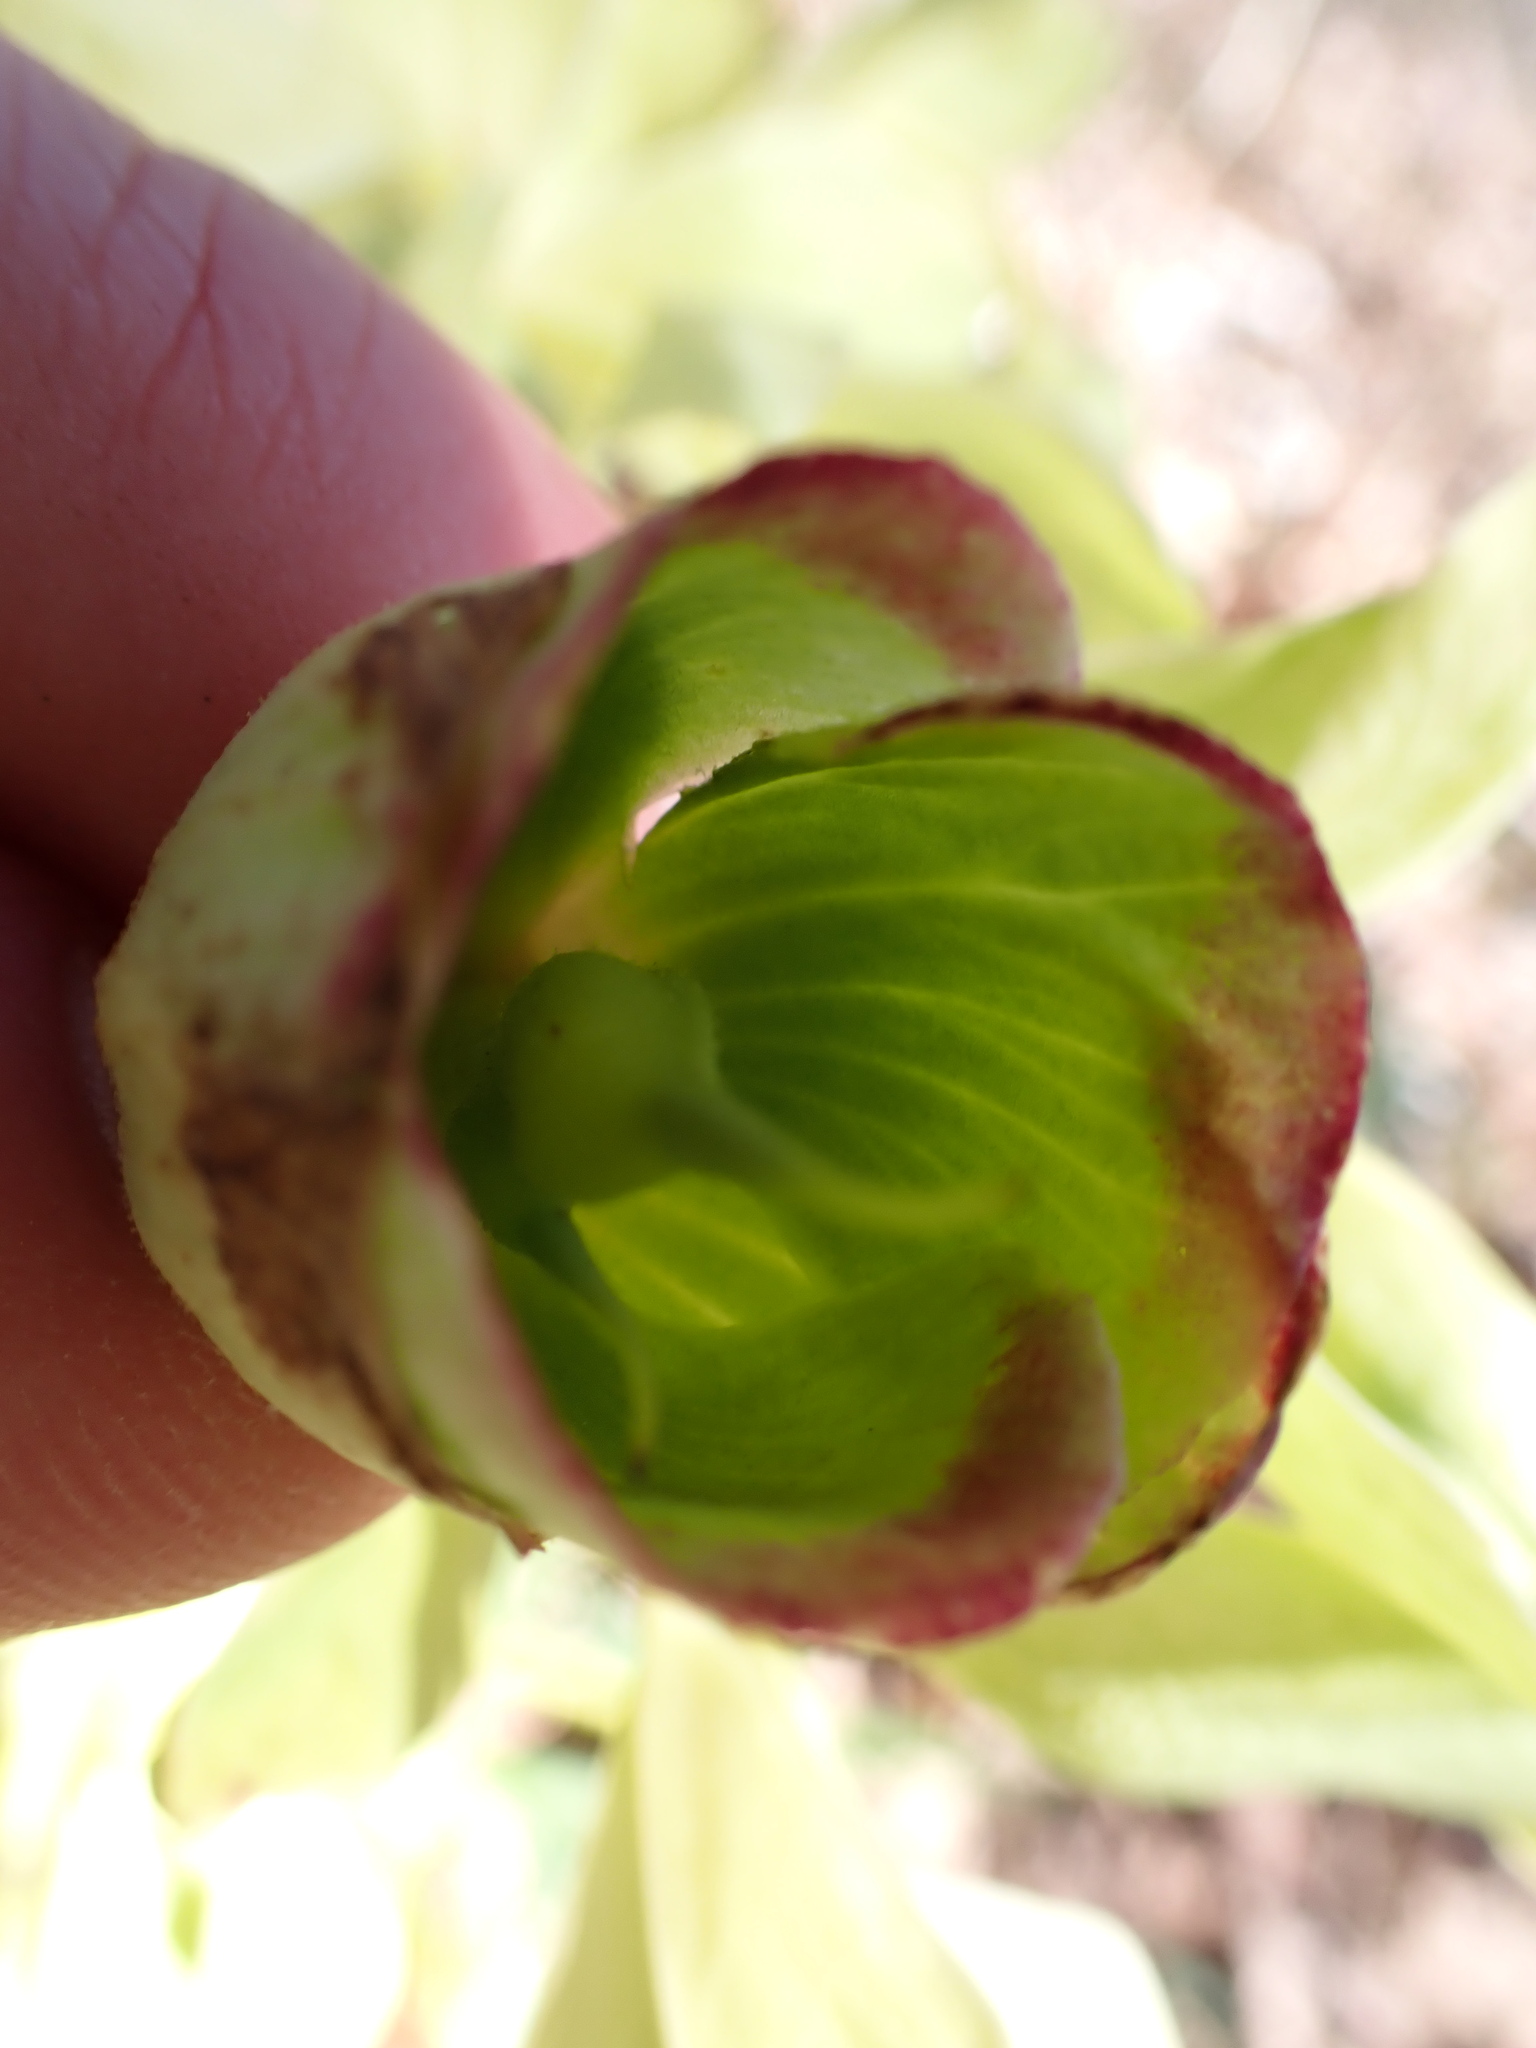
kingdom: Plantae
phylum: Tracheophyta
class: Magnoliopsida
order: Ranunculales
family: Ranunculaceae
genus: Helleborus
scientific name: Helleborus foetidus
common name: Stinking hellebore
